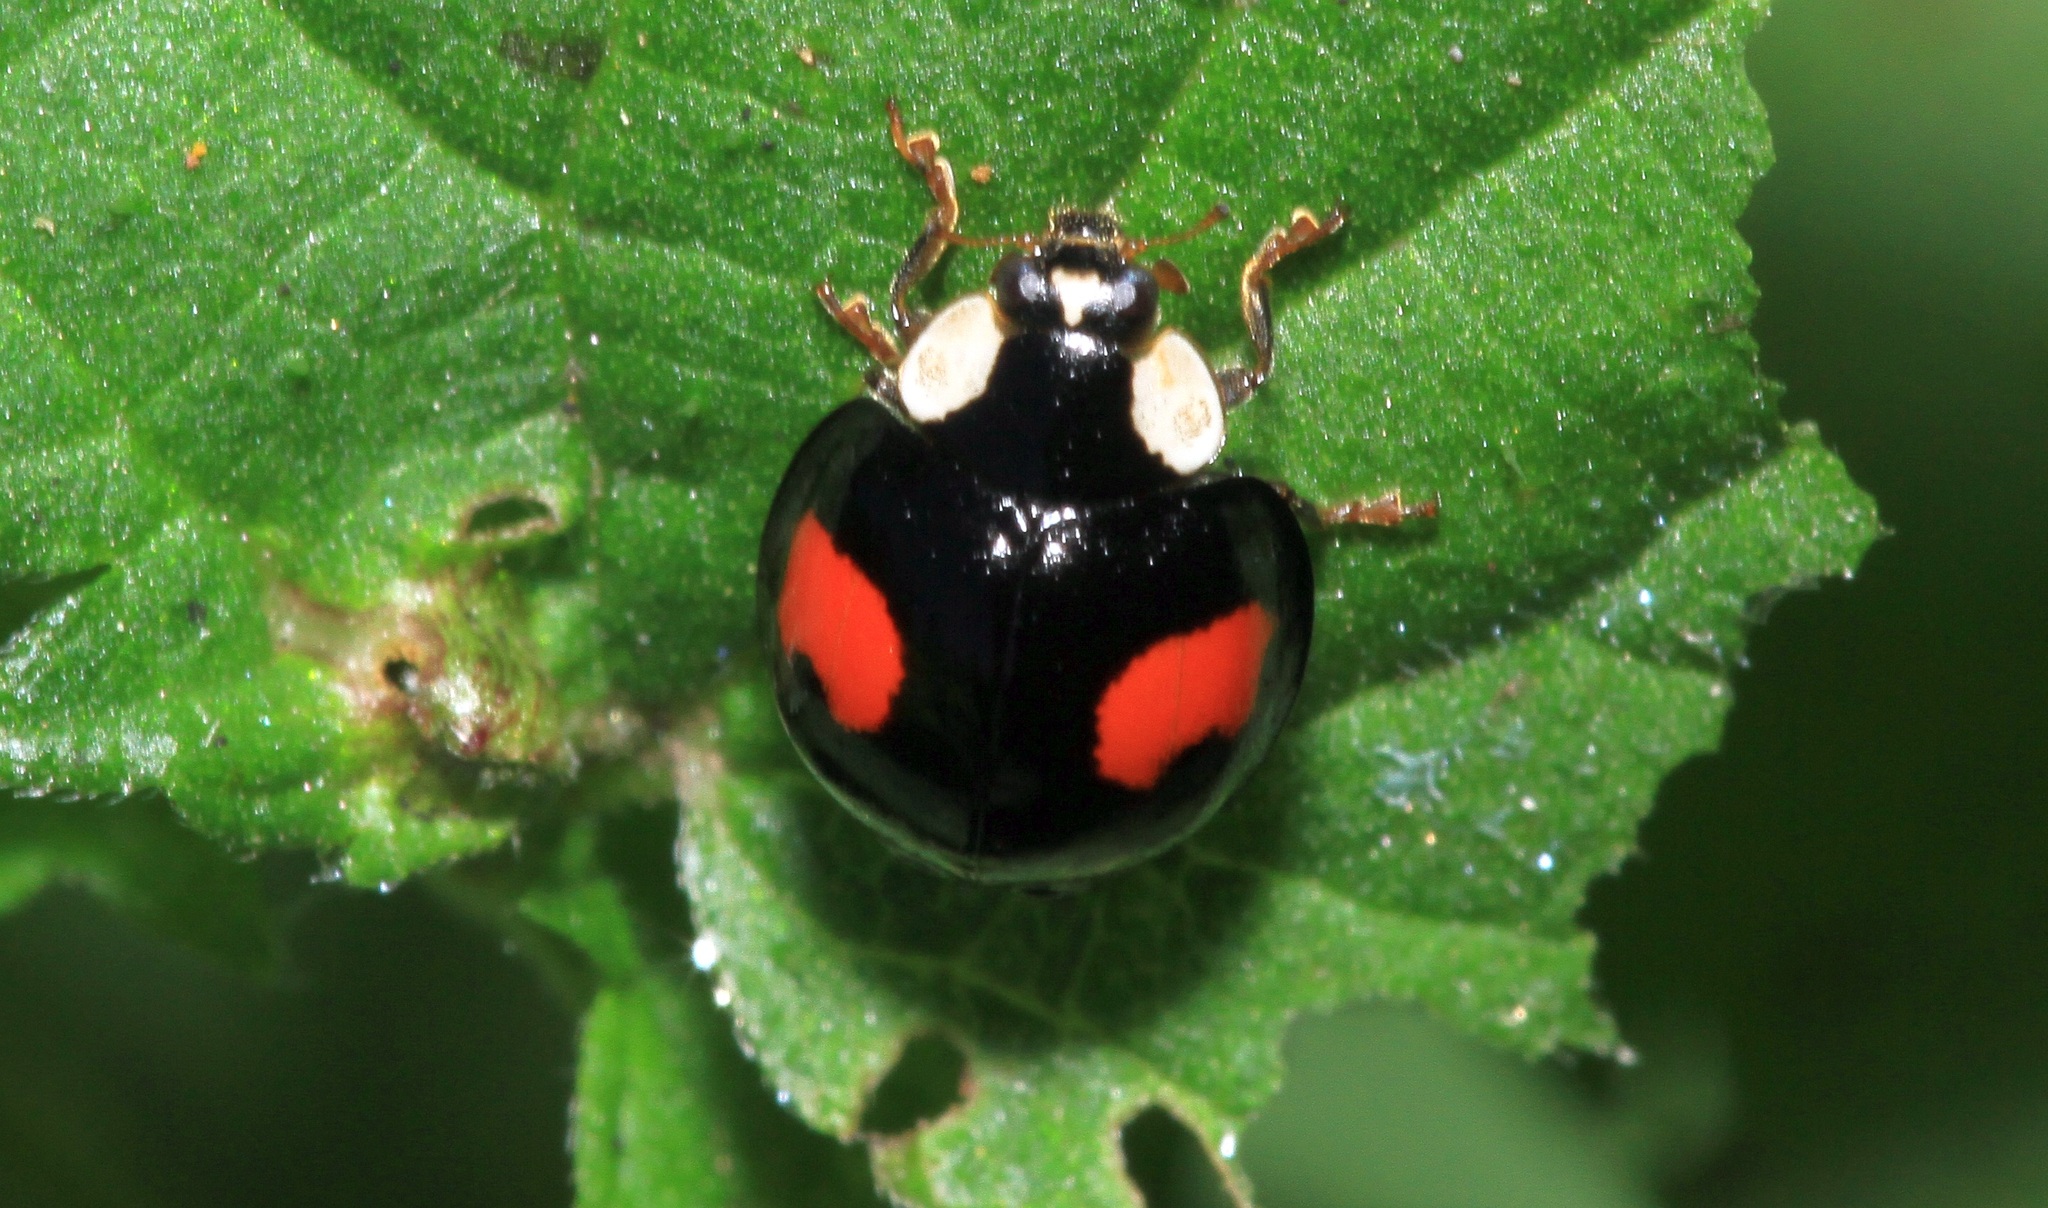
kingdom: Animalia
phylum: Arthropoda
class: Insecta
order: Coleoptera
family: Coccinellidae
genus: Harmonia
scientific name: Harmonia axyridis
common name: Harlequin ladybird
